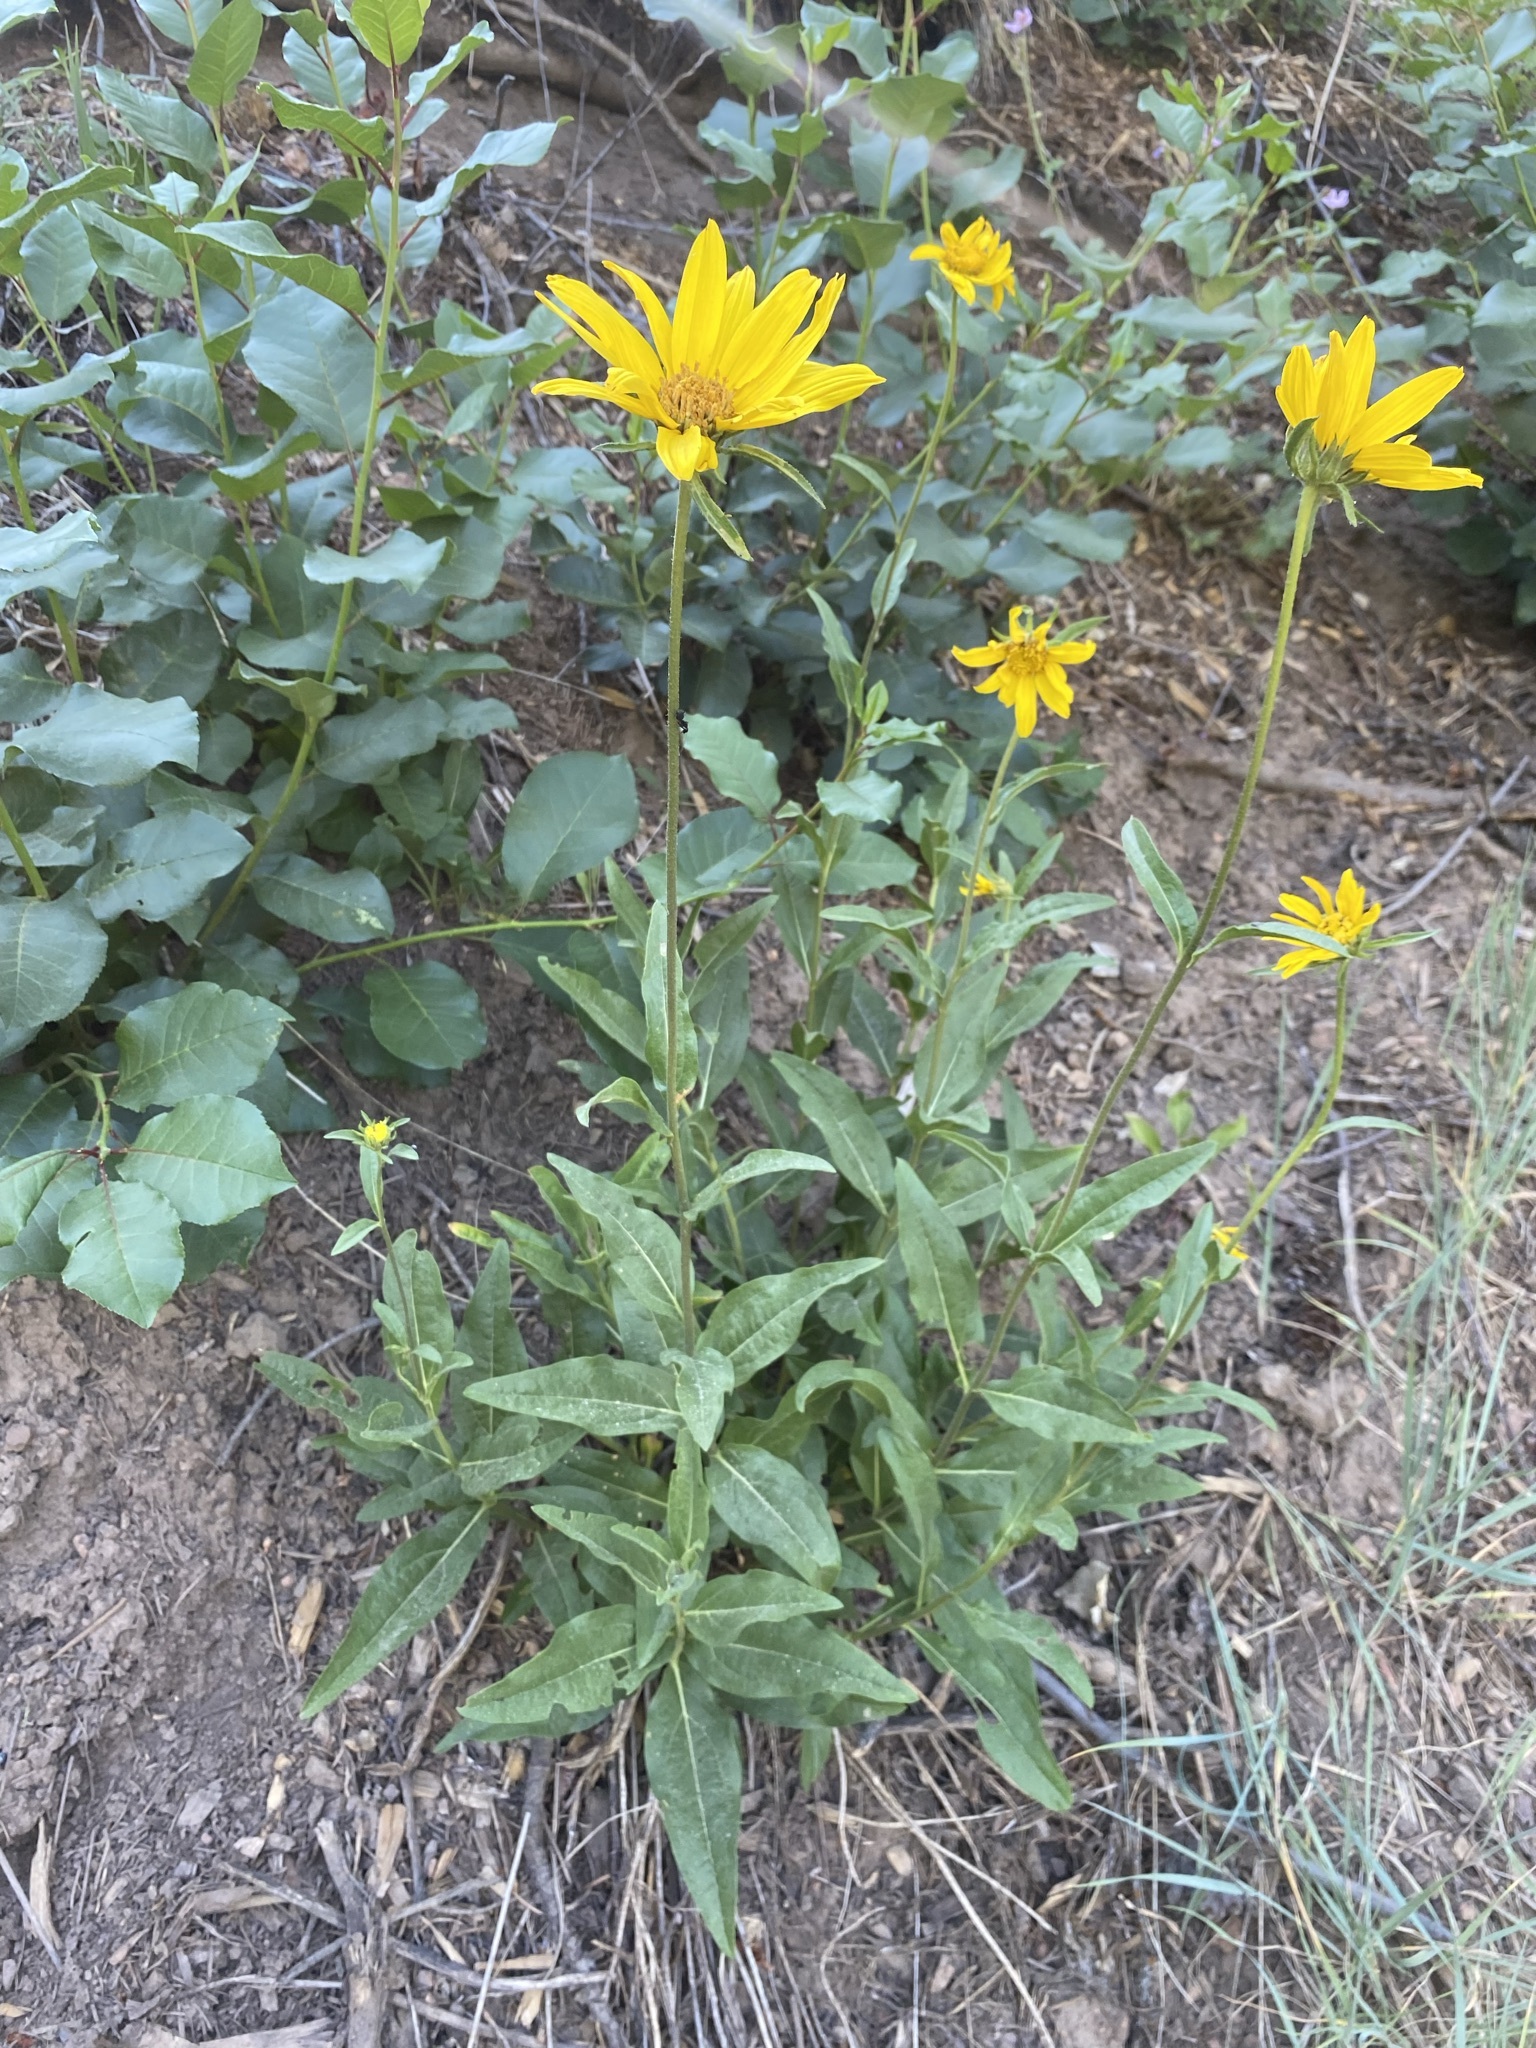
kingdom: Plantae
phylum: Tracheophyta
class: Magnoliopsida
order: Asterales
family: Asteraceae
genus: Helianthella
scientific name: Helianthella uniflora
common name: Rocky mountain dwarf sunflower
